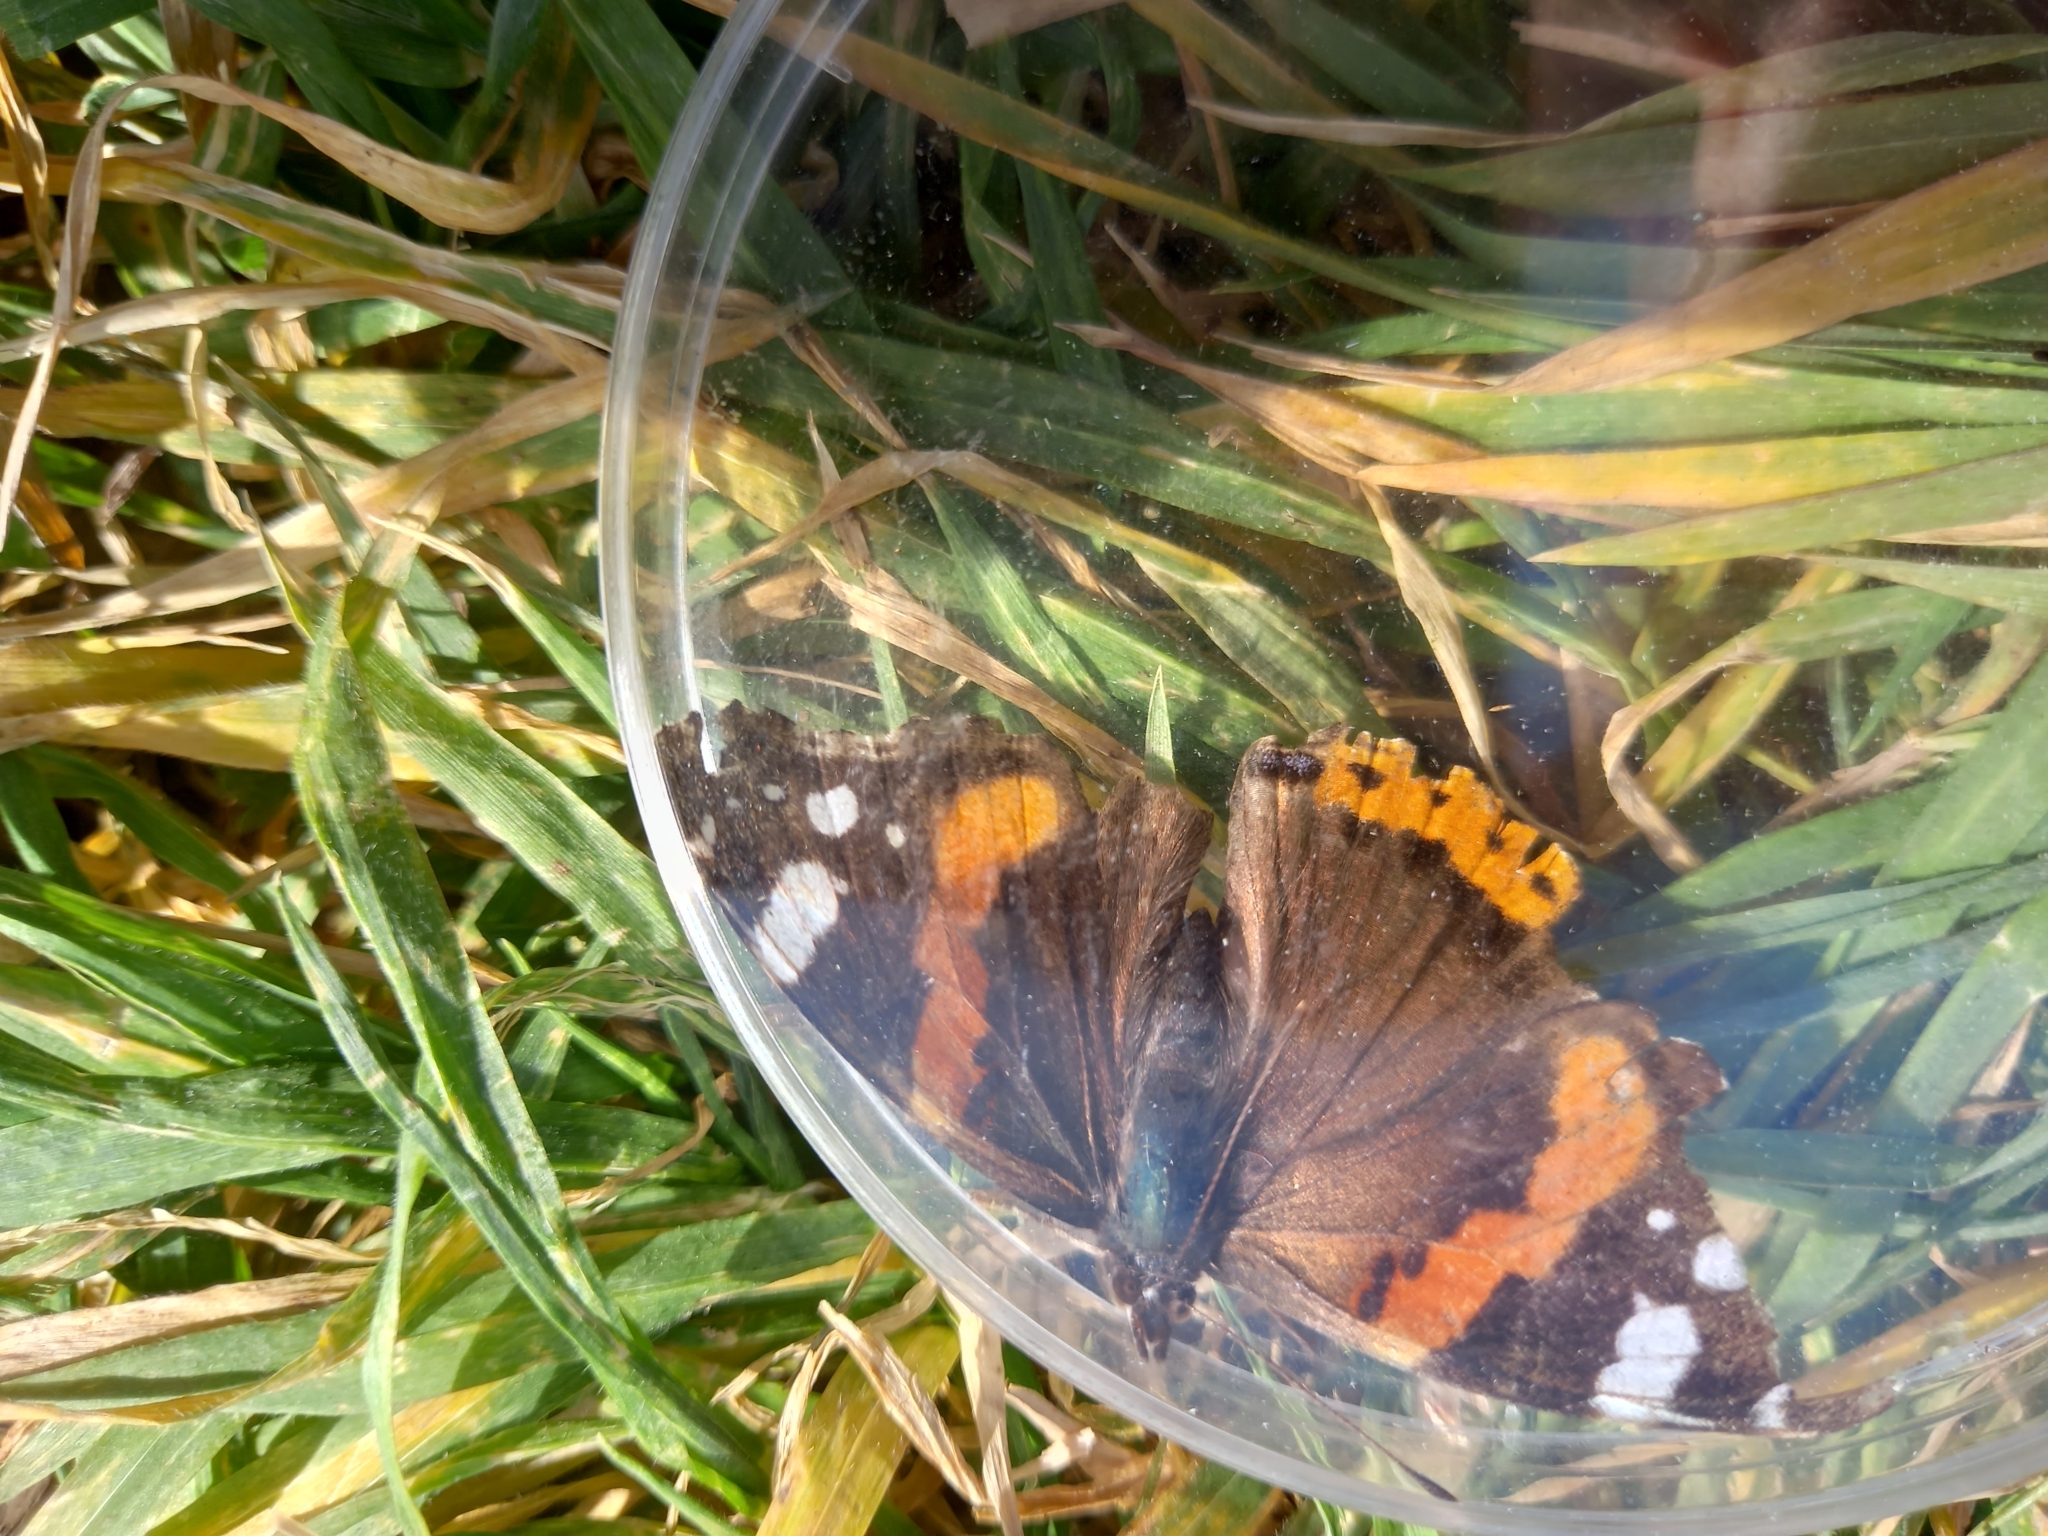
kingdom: Animalia
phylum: Arthropoda
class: Insecta
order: Lepidoptera
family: Nymphalidae
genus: Vanessa
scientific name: Vanessa atalanta
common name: Red admiral
